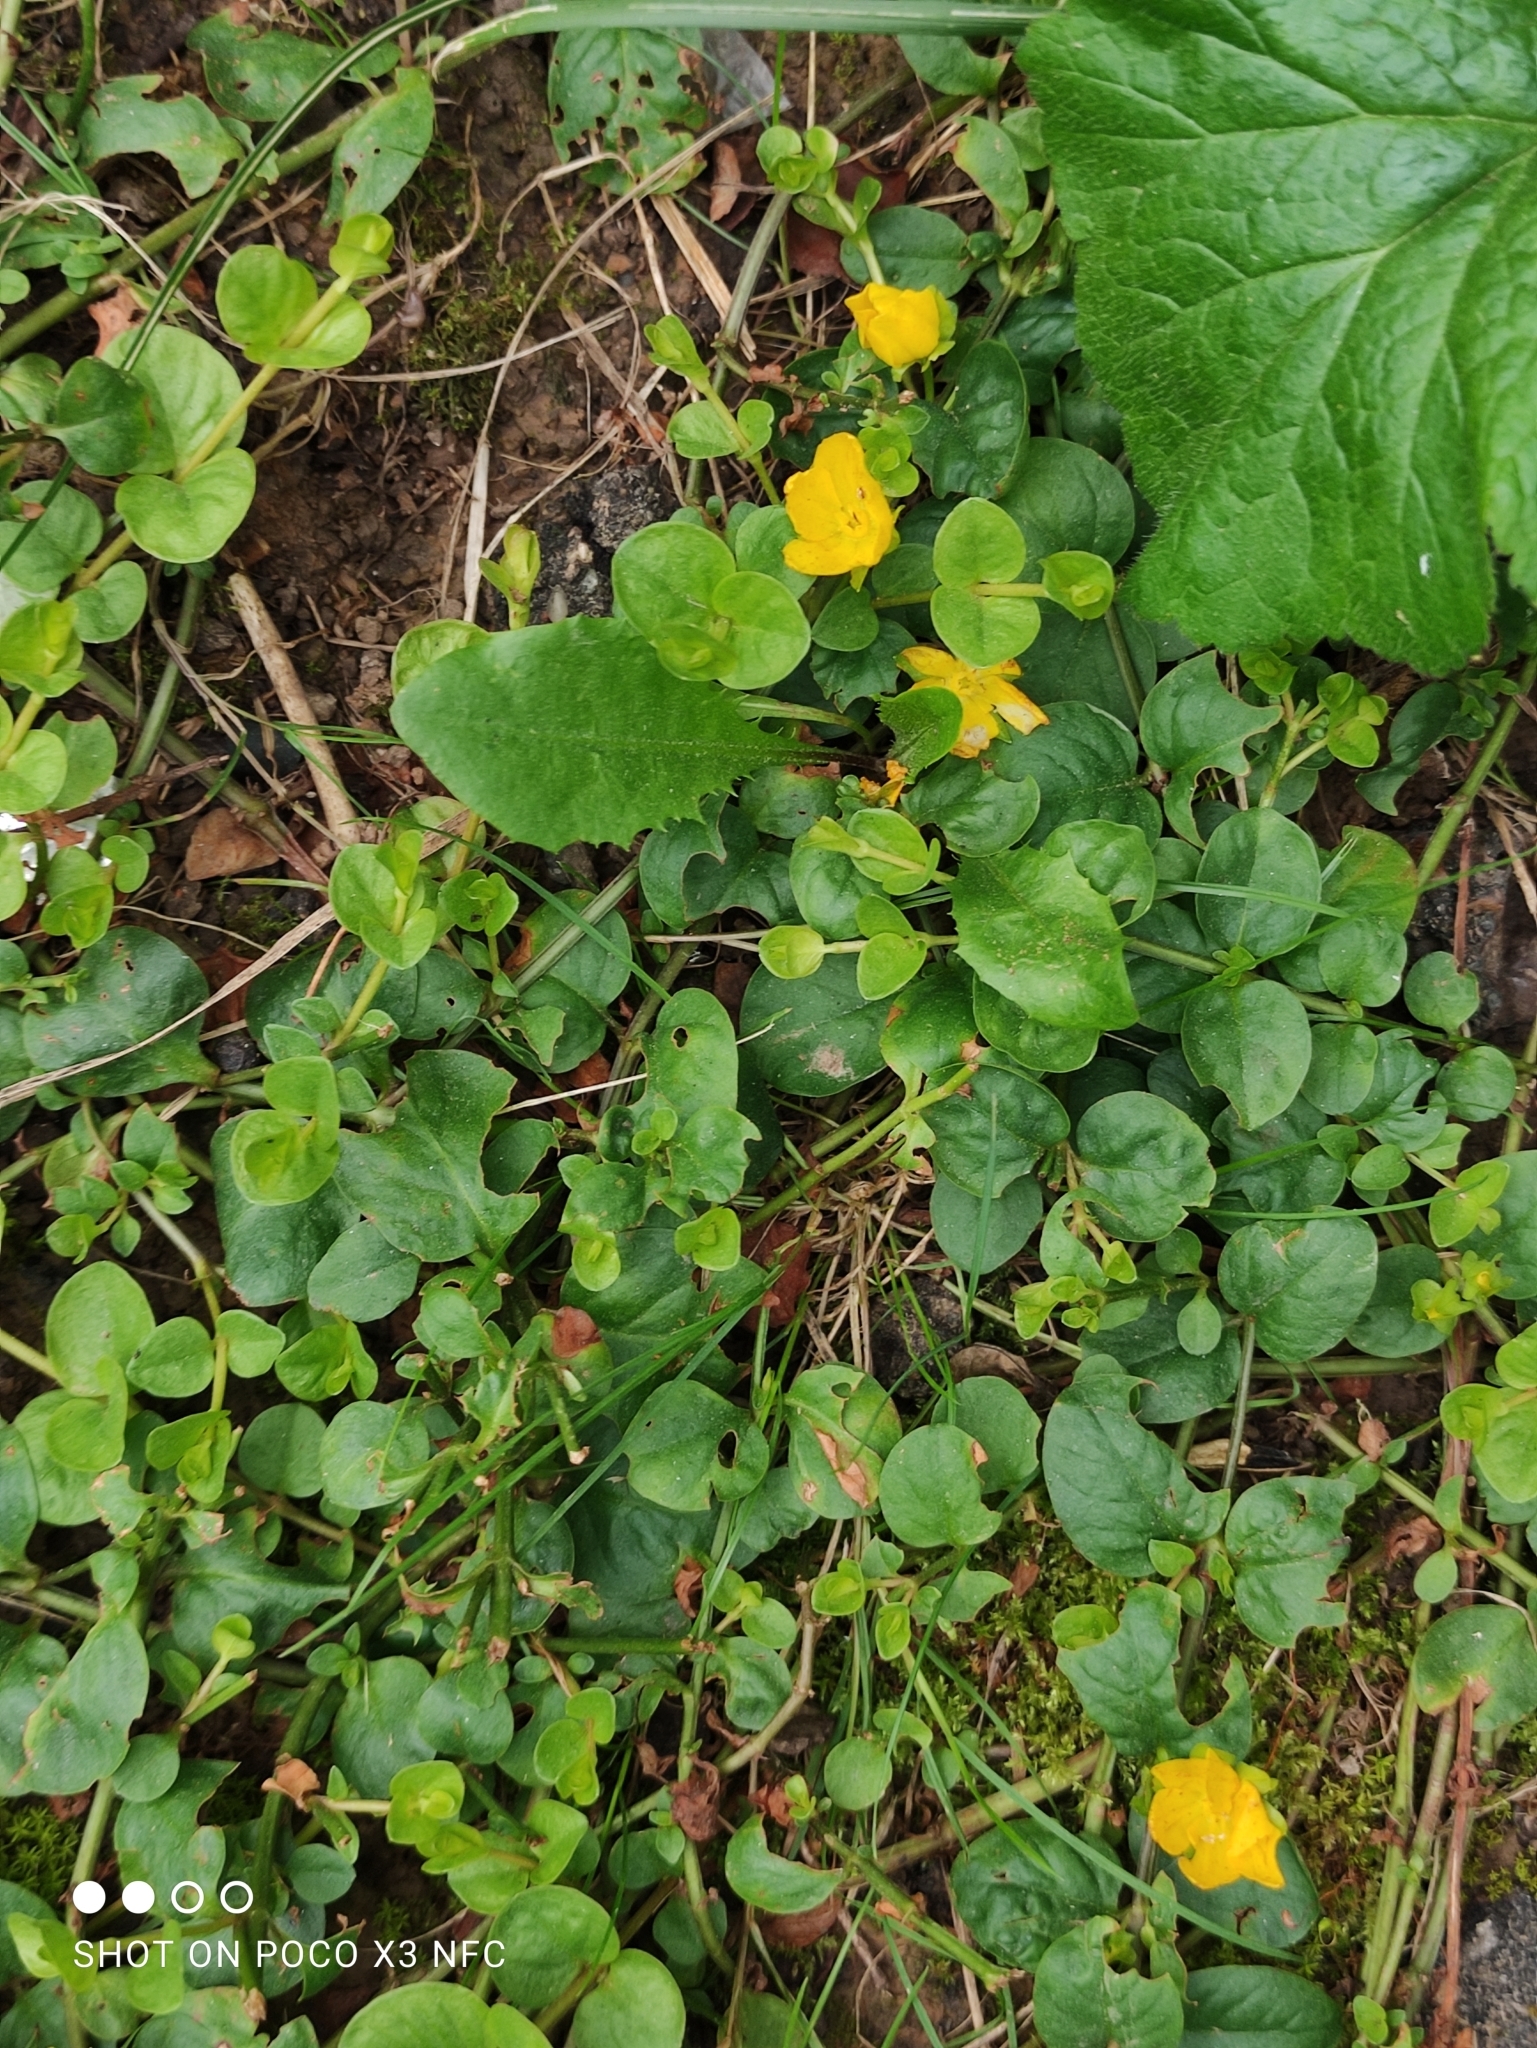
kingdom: Plantae
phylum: Tracheophyta
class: Magnoliopsida
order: Ericales
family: Primulaceae
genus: Lysimachia
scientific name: Lysimachia nummularia
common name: Moneywort
